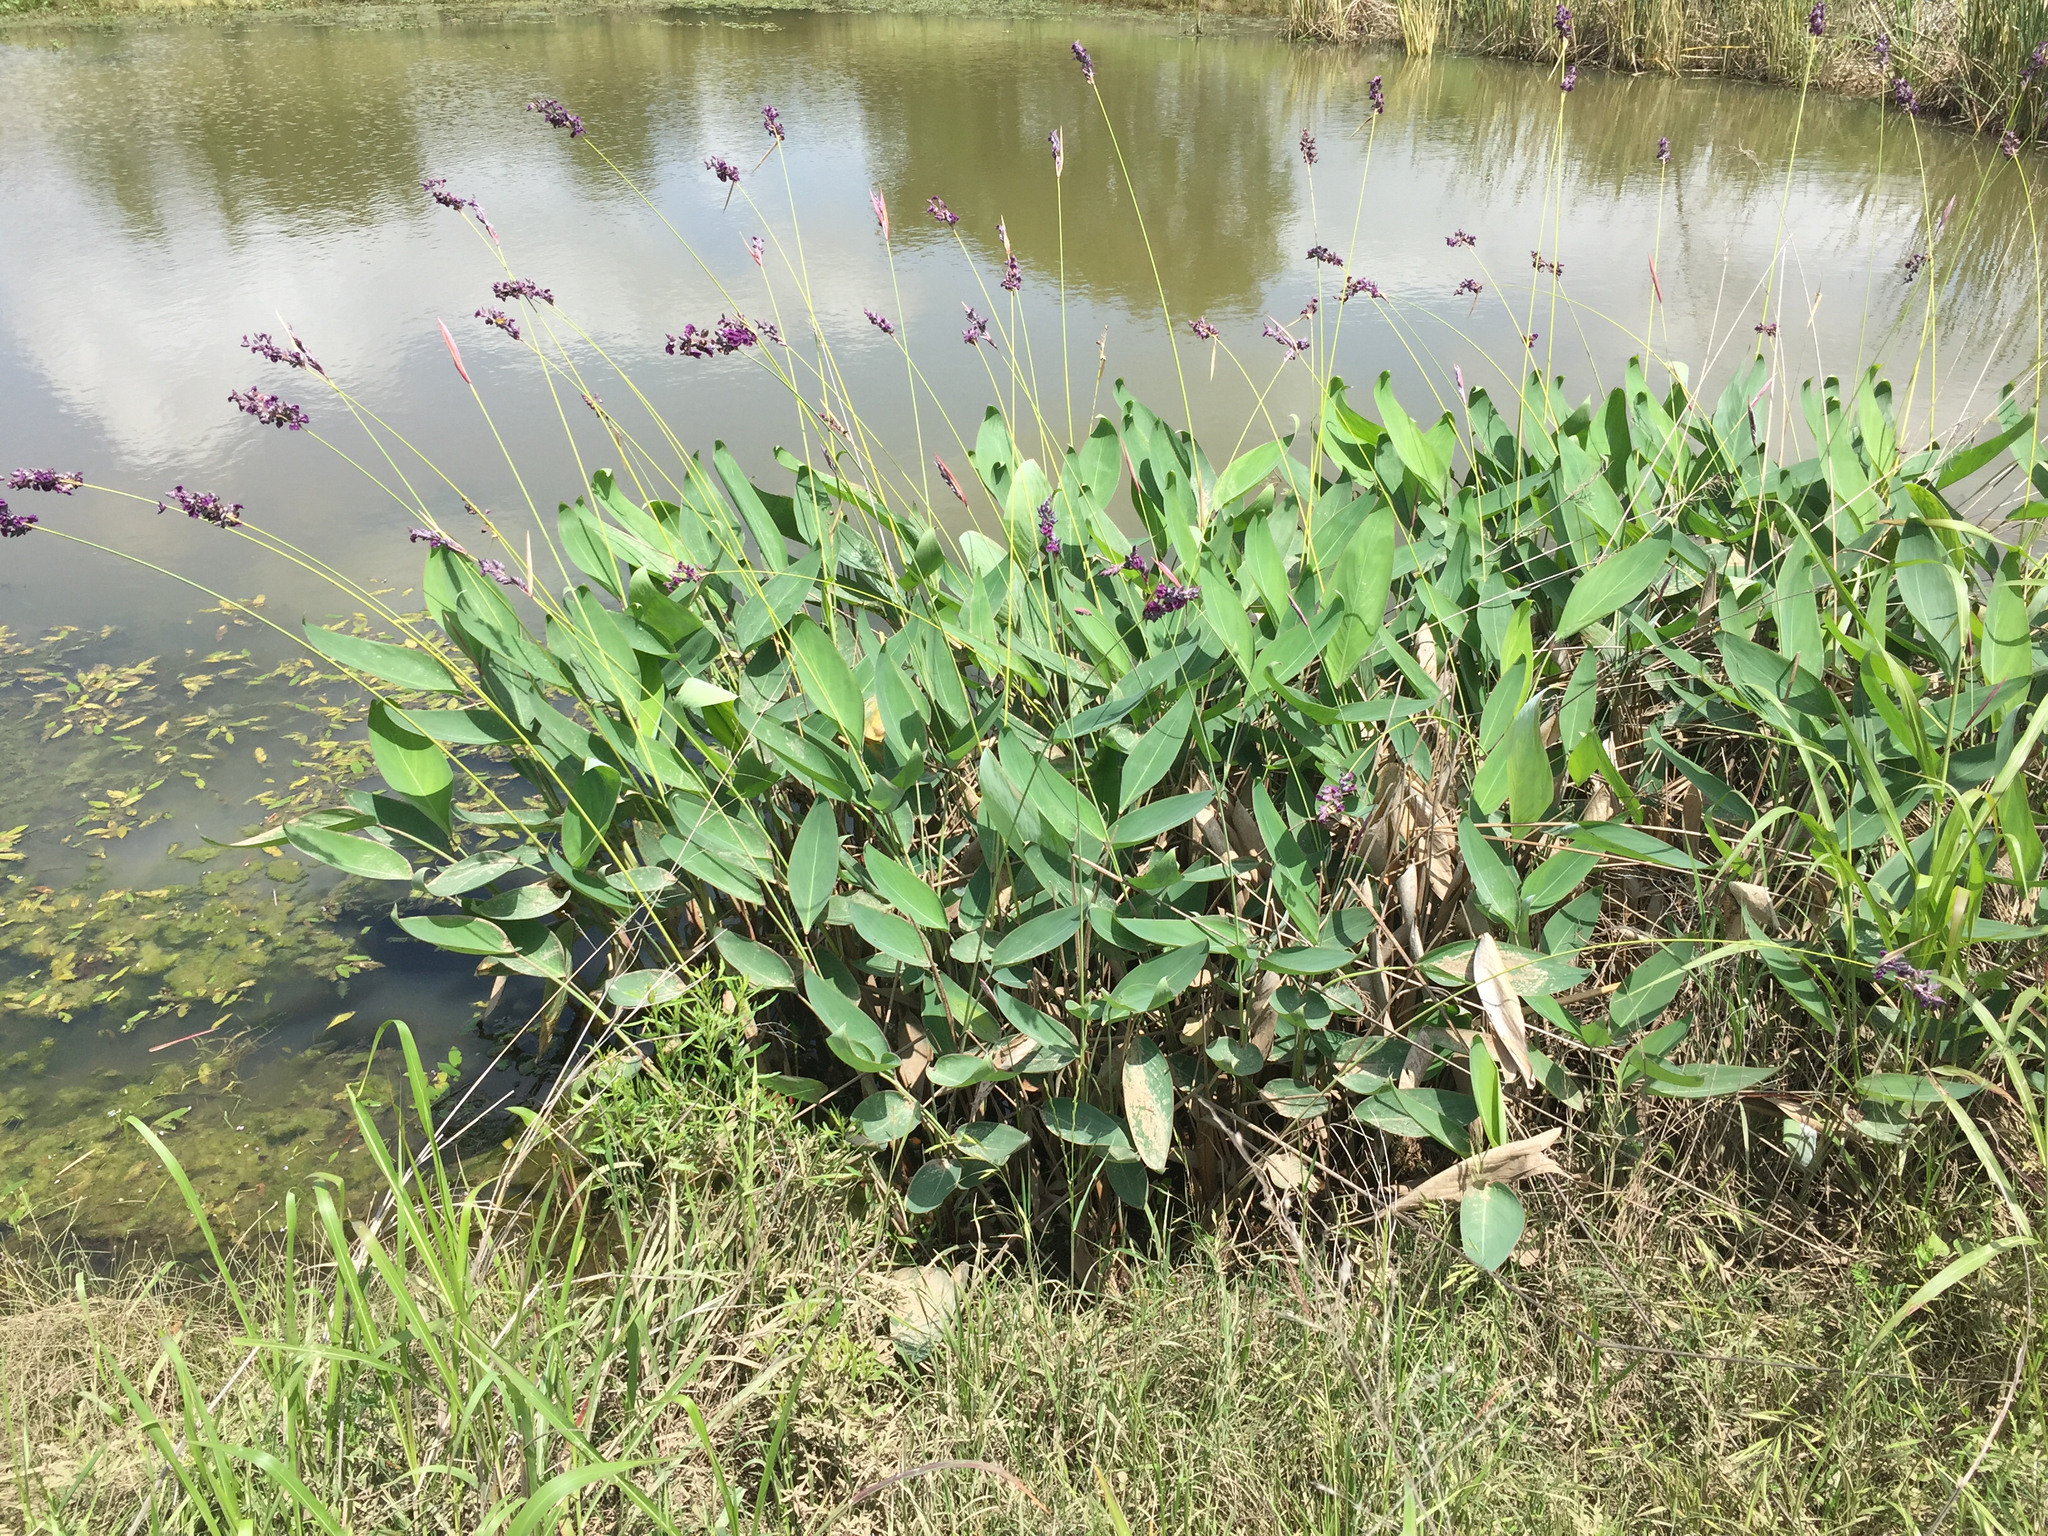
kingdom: Plantae
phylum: Tracheophyta
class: Liliopsida
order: Zingiberales
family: Marantaceae
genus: Thalia
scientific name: Thalia dealbata
